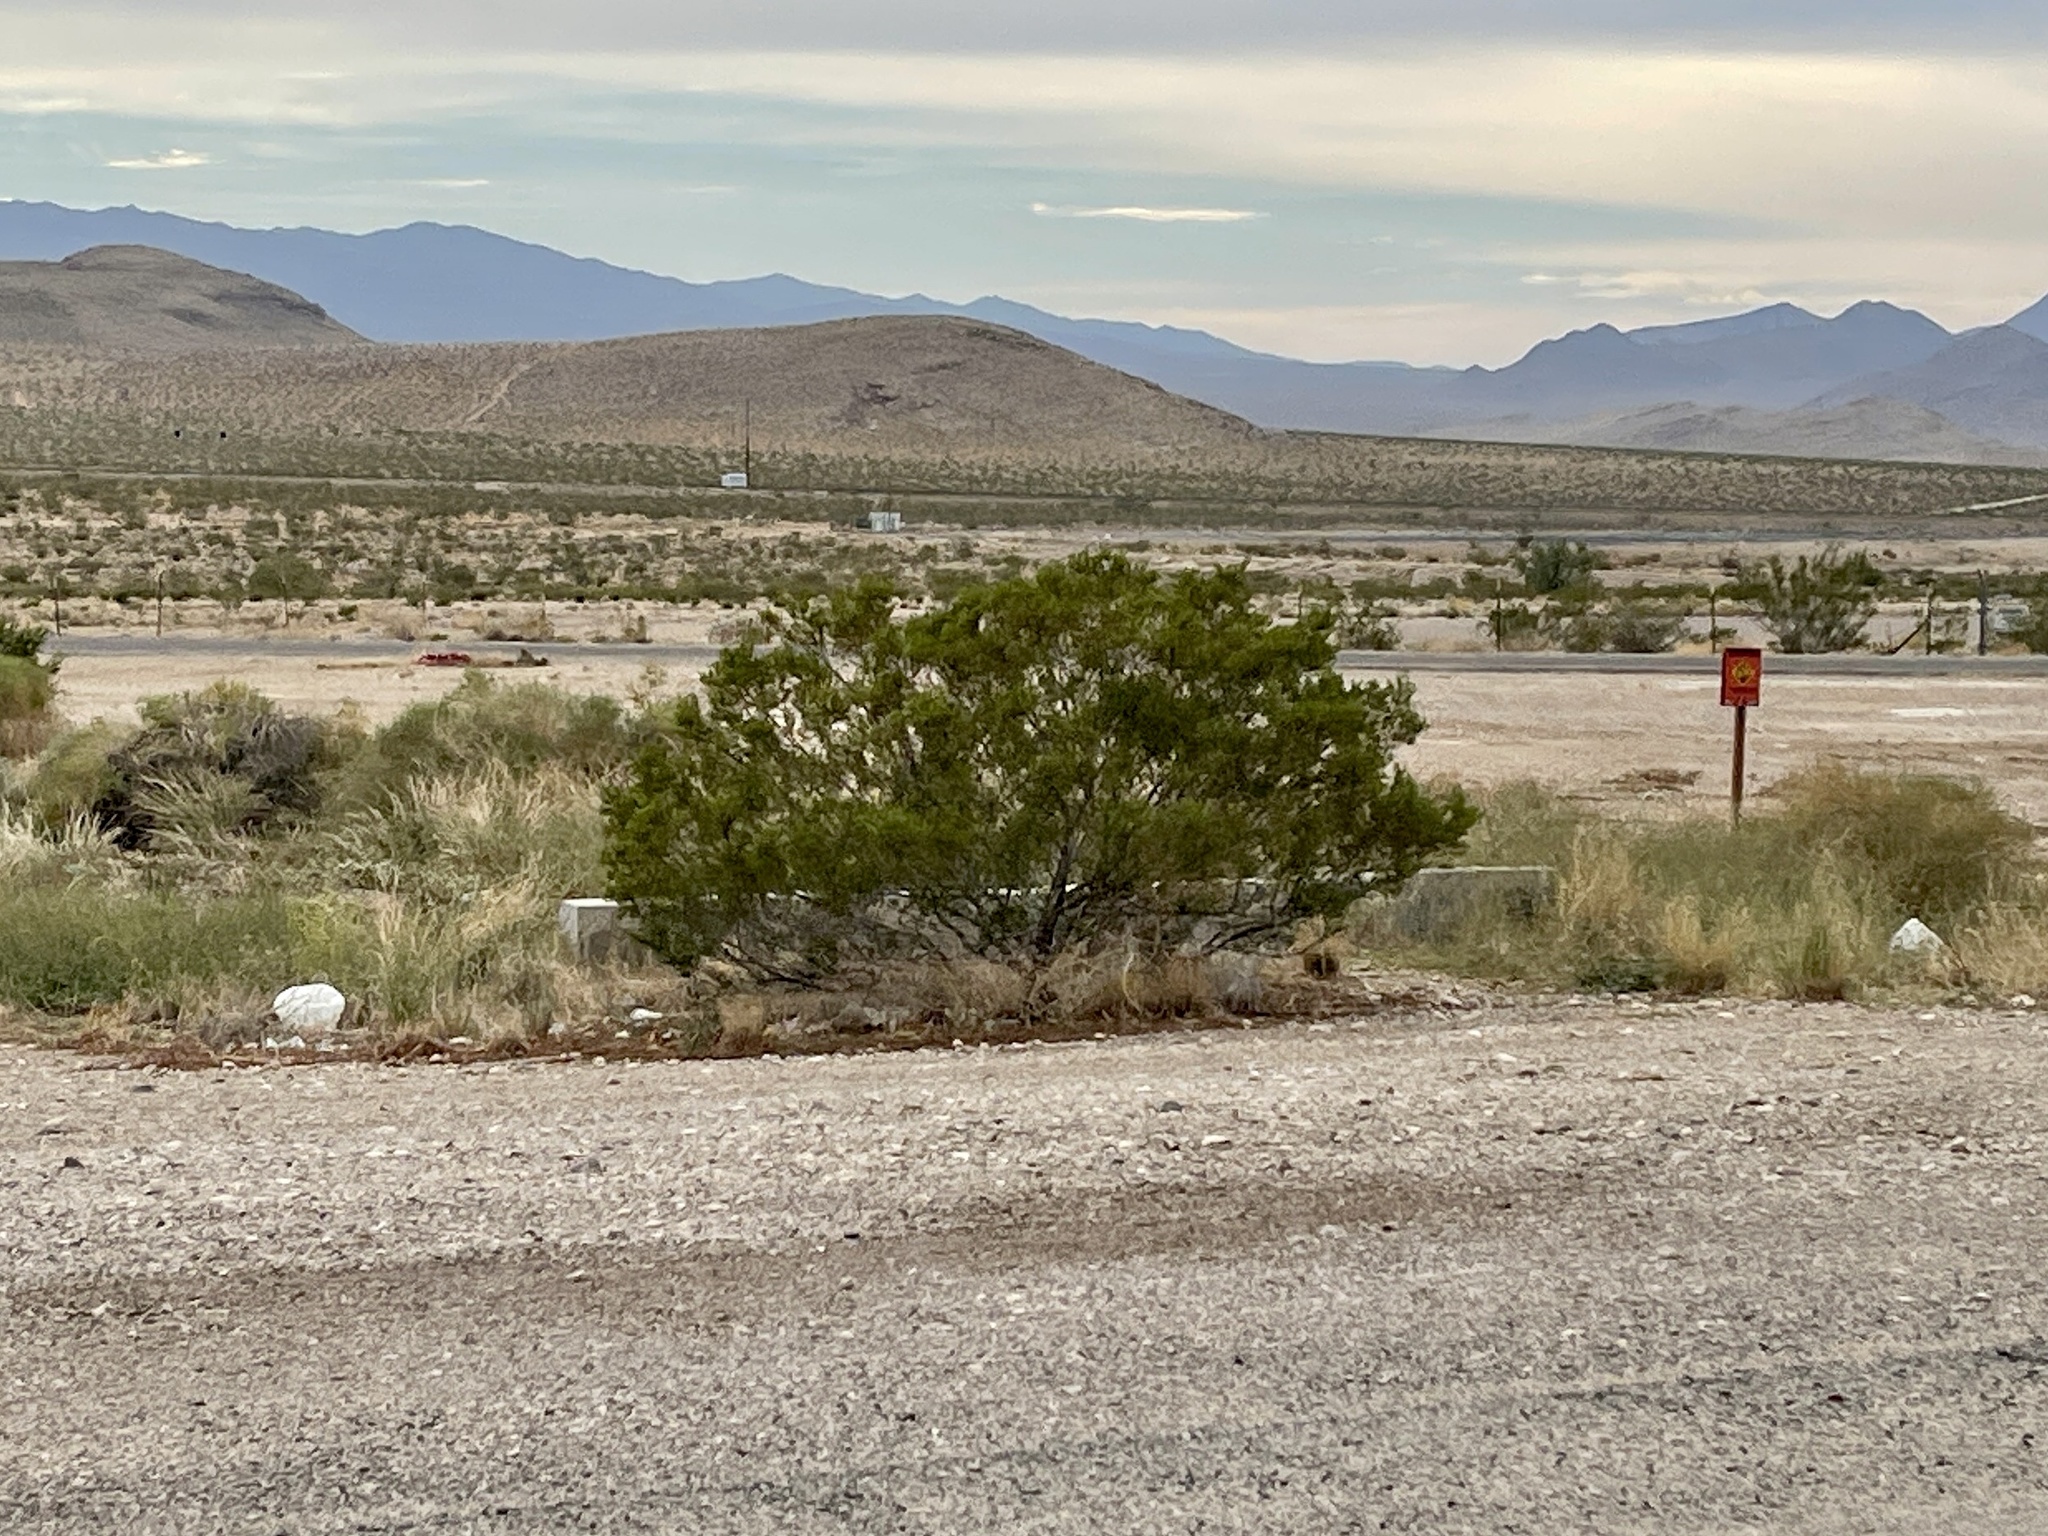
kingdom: Plantae
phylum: Tracheophyta
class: Magnoliopsida
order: Zygophyllales
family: Zygophyllaceae
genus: Larrea
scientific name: Larrea tridentata
